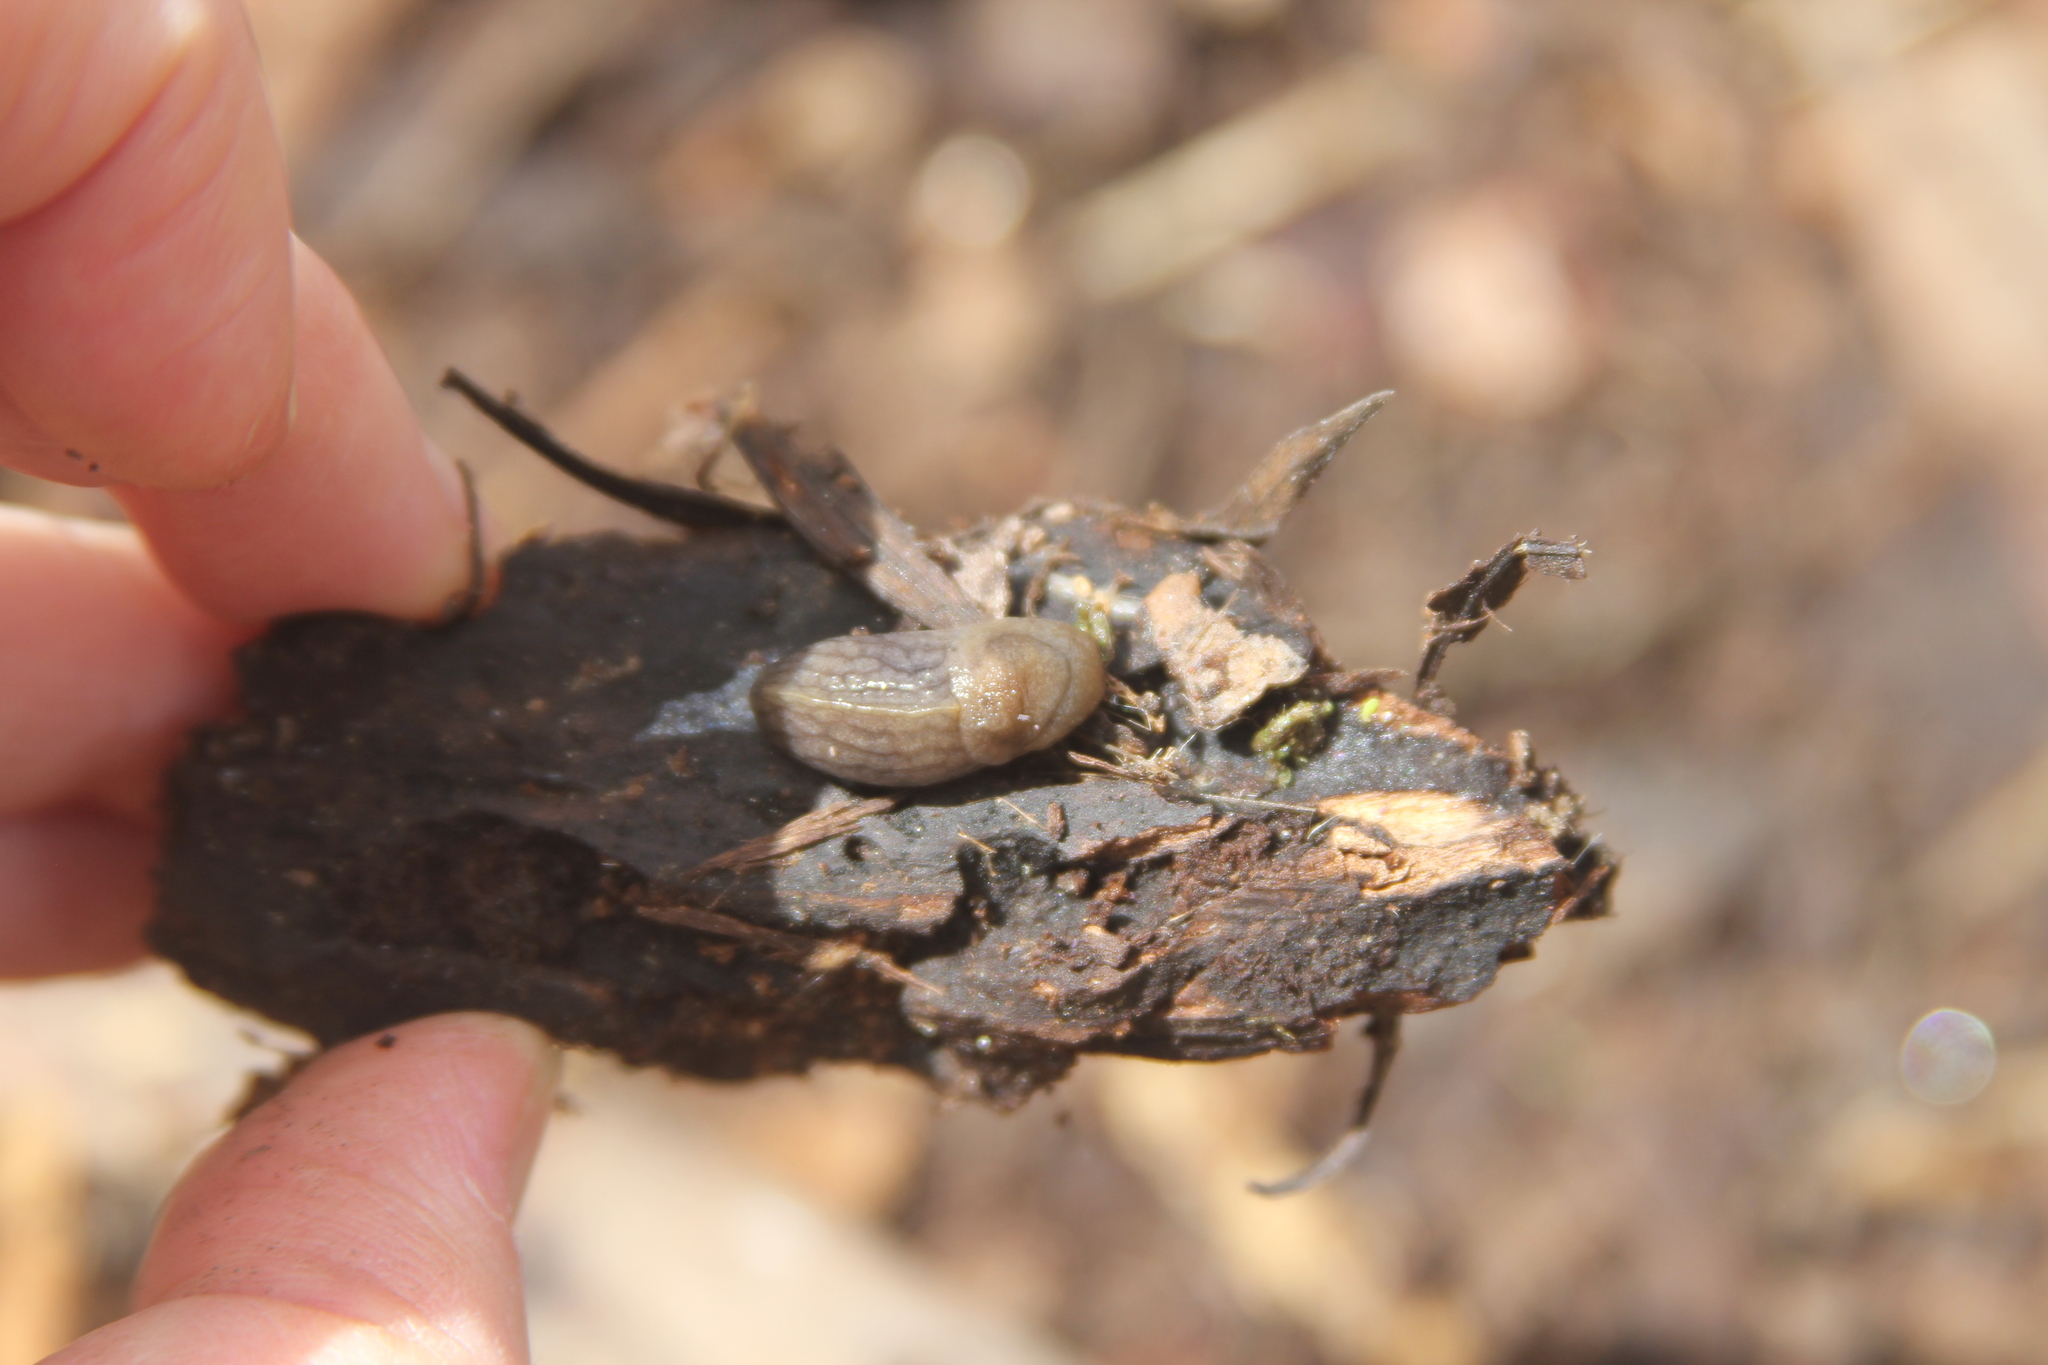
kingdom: Animalia
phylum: Mollusca
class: Gastropoda
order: Stylommatophora
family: Milacidae
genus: Milax
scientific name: Milax gagates
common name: Greenhouse slug
